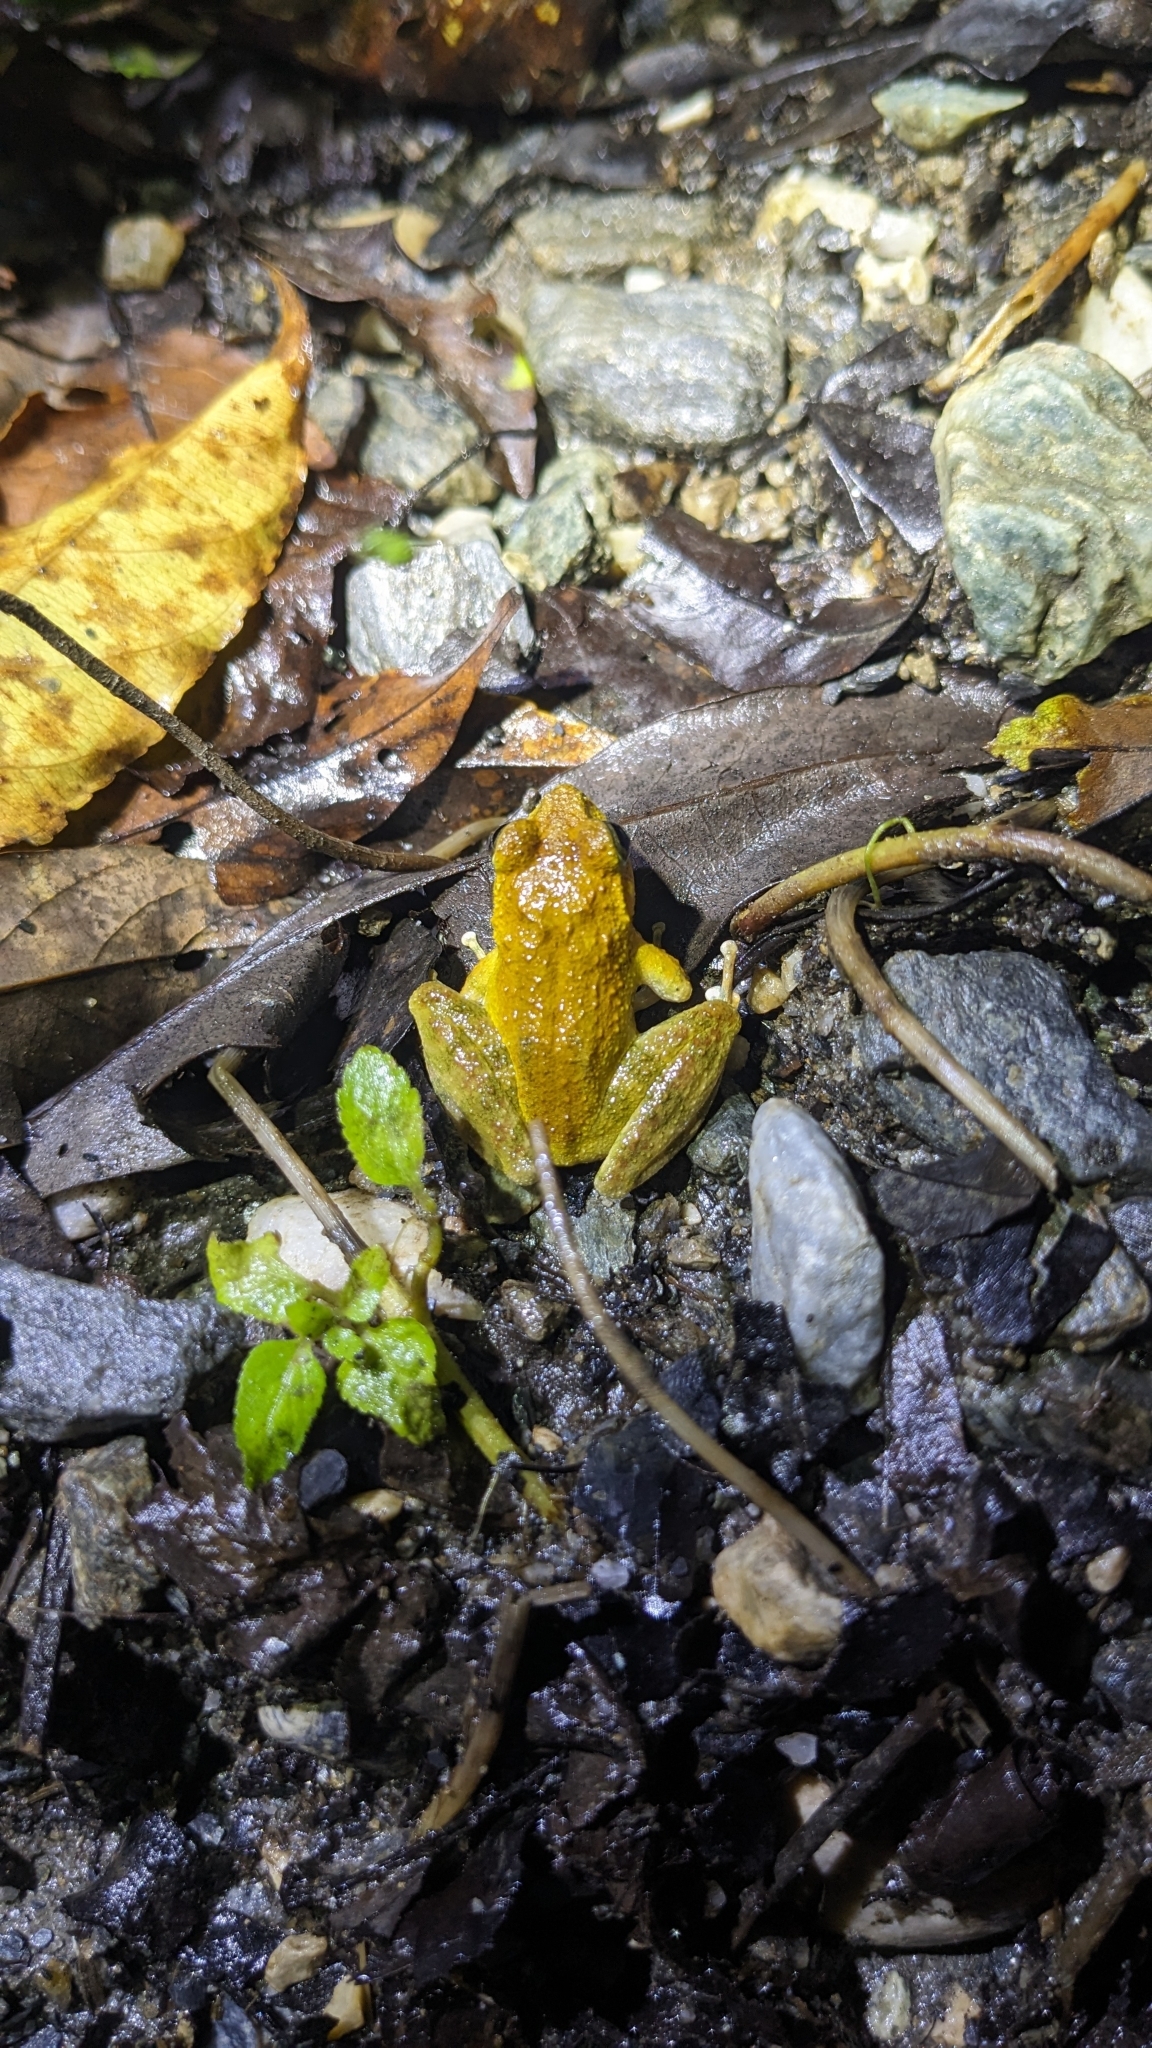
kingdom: Animalia
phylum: Chordata
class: Amphibia
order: Anura
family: Rhacophoridae
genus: Buergeria
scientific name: Buergeria otai
